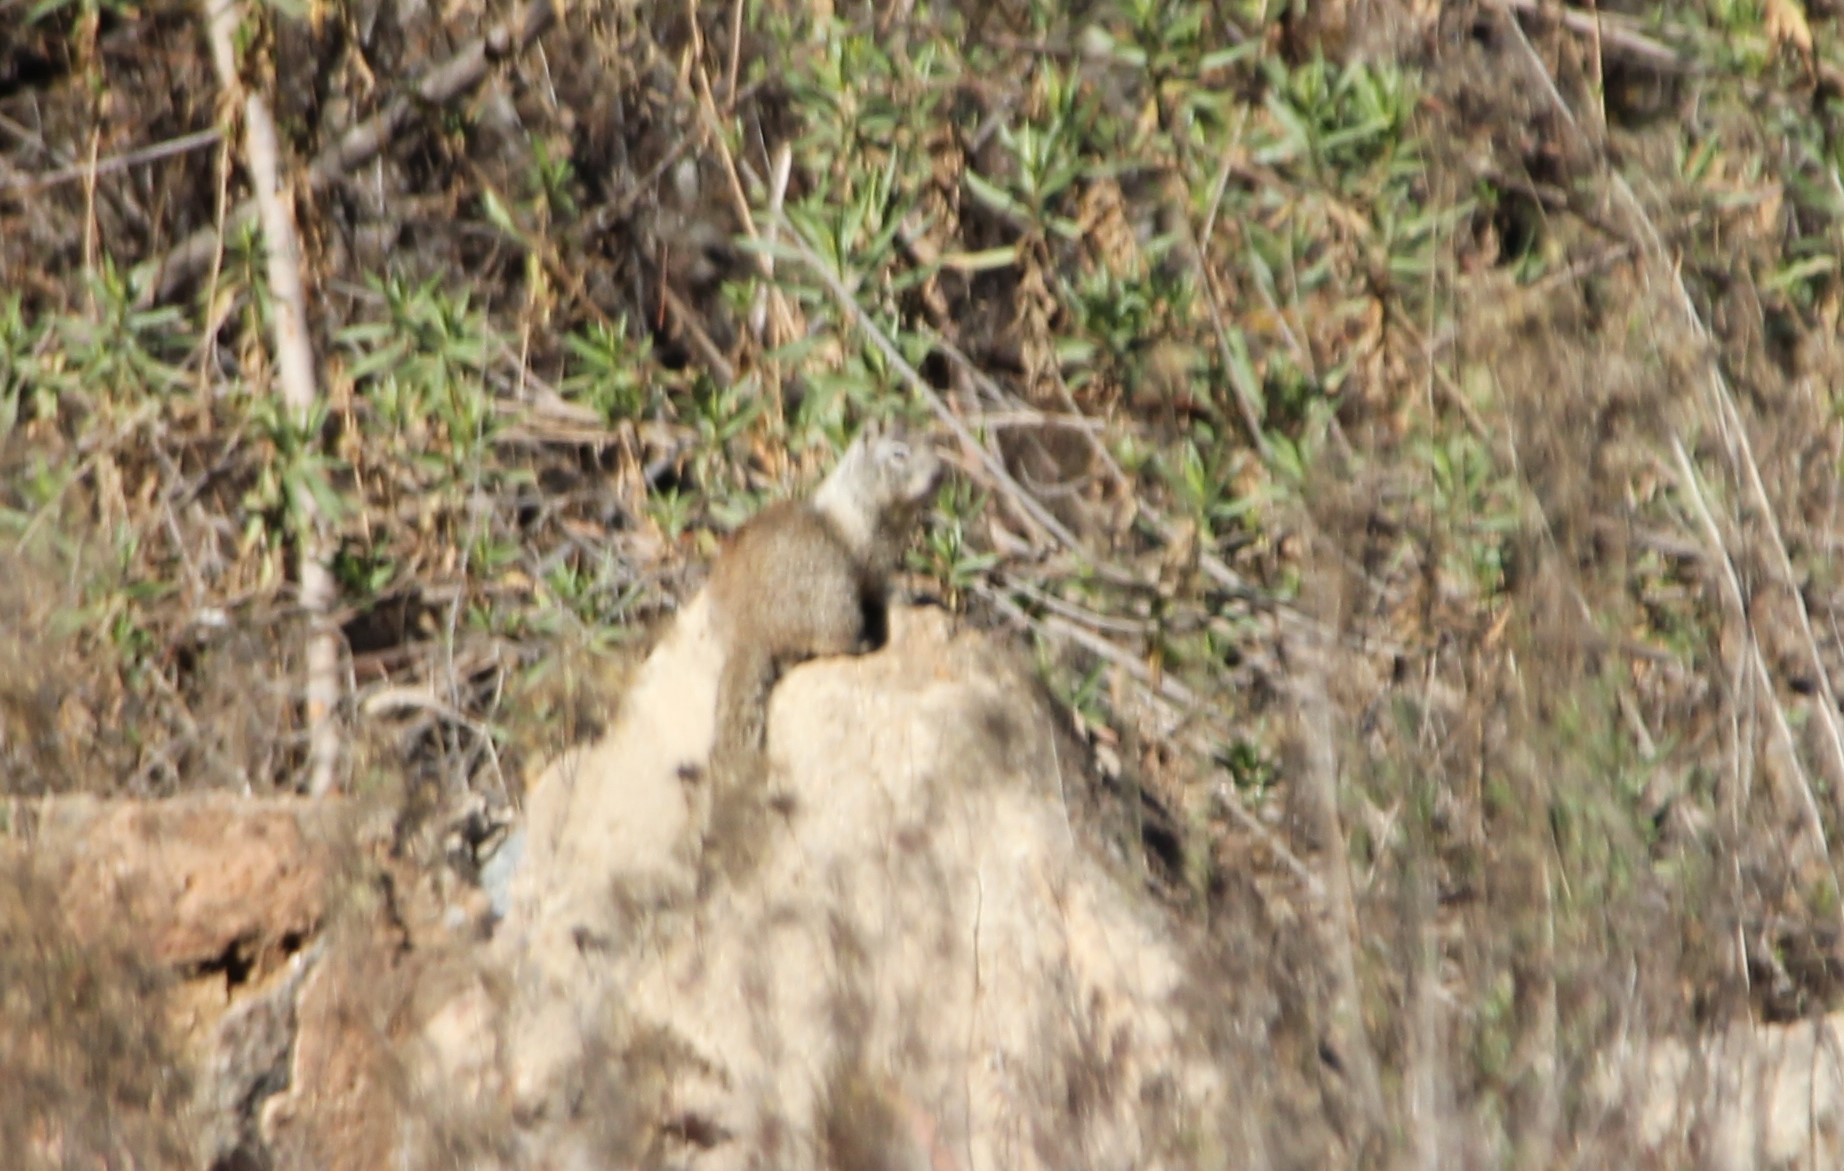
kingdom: Animalia
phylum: Chordata
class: Mammalia
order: Rodentia
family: Sciuridae
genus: Otospermophilus
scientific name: Otospermophilus beecheyi
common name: California ground squirrel
